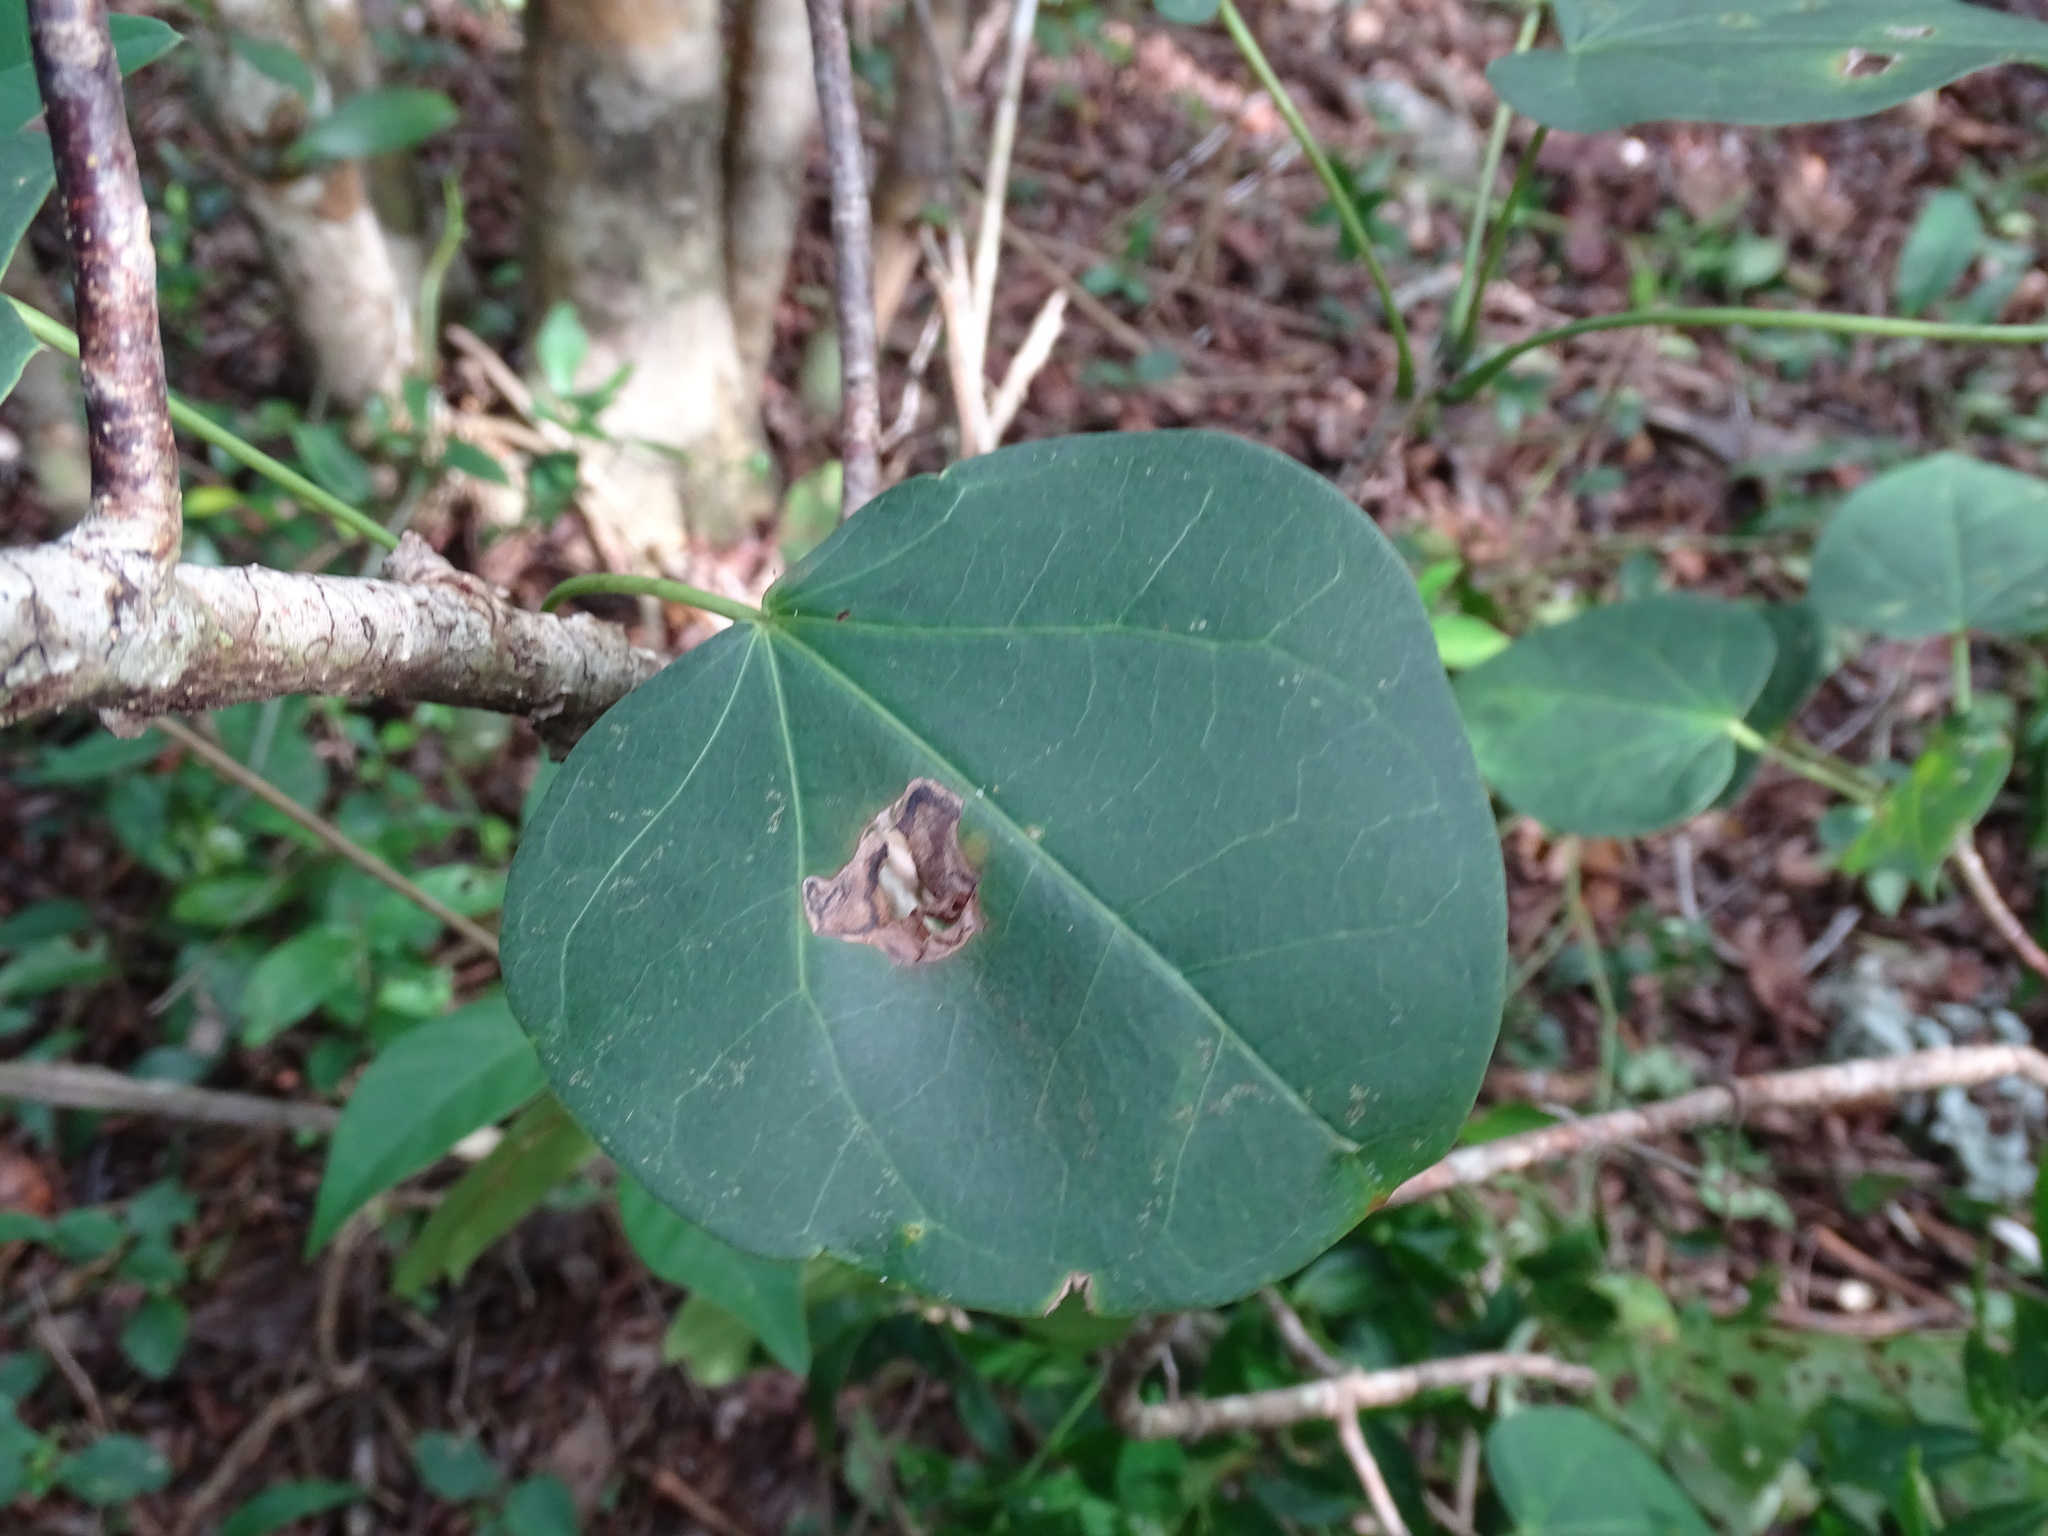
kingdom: Plantae
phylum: Tracheophyta
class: Magnoliopsida
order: Malpighiales
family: Euphorbiaceae
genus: Jatropha
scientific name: Jatropha gaumeri
